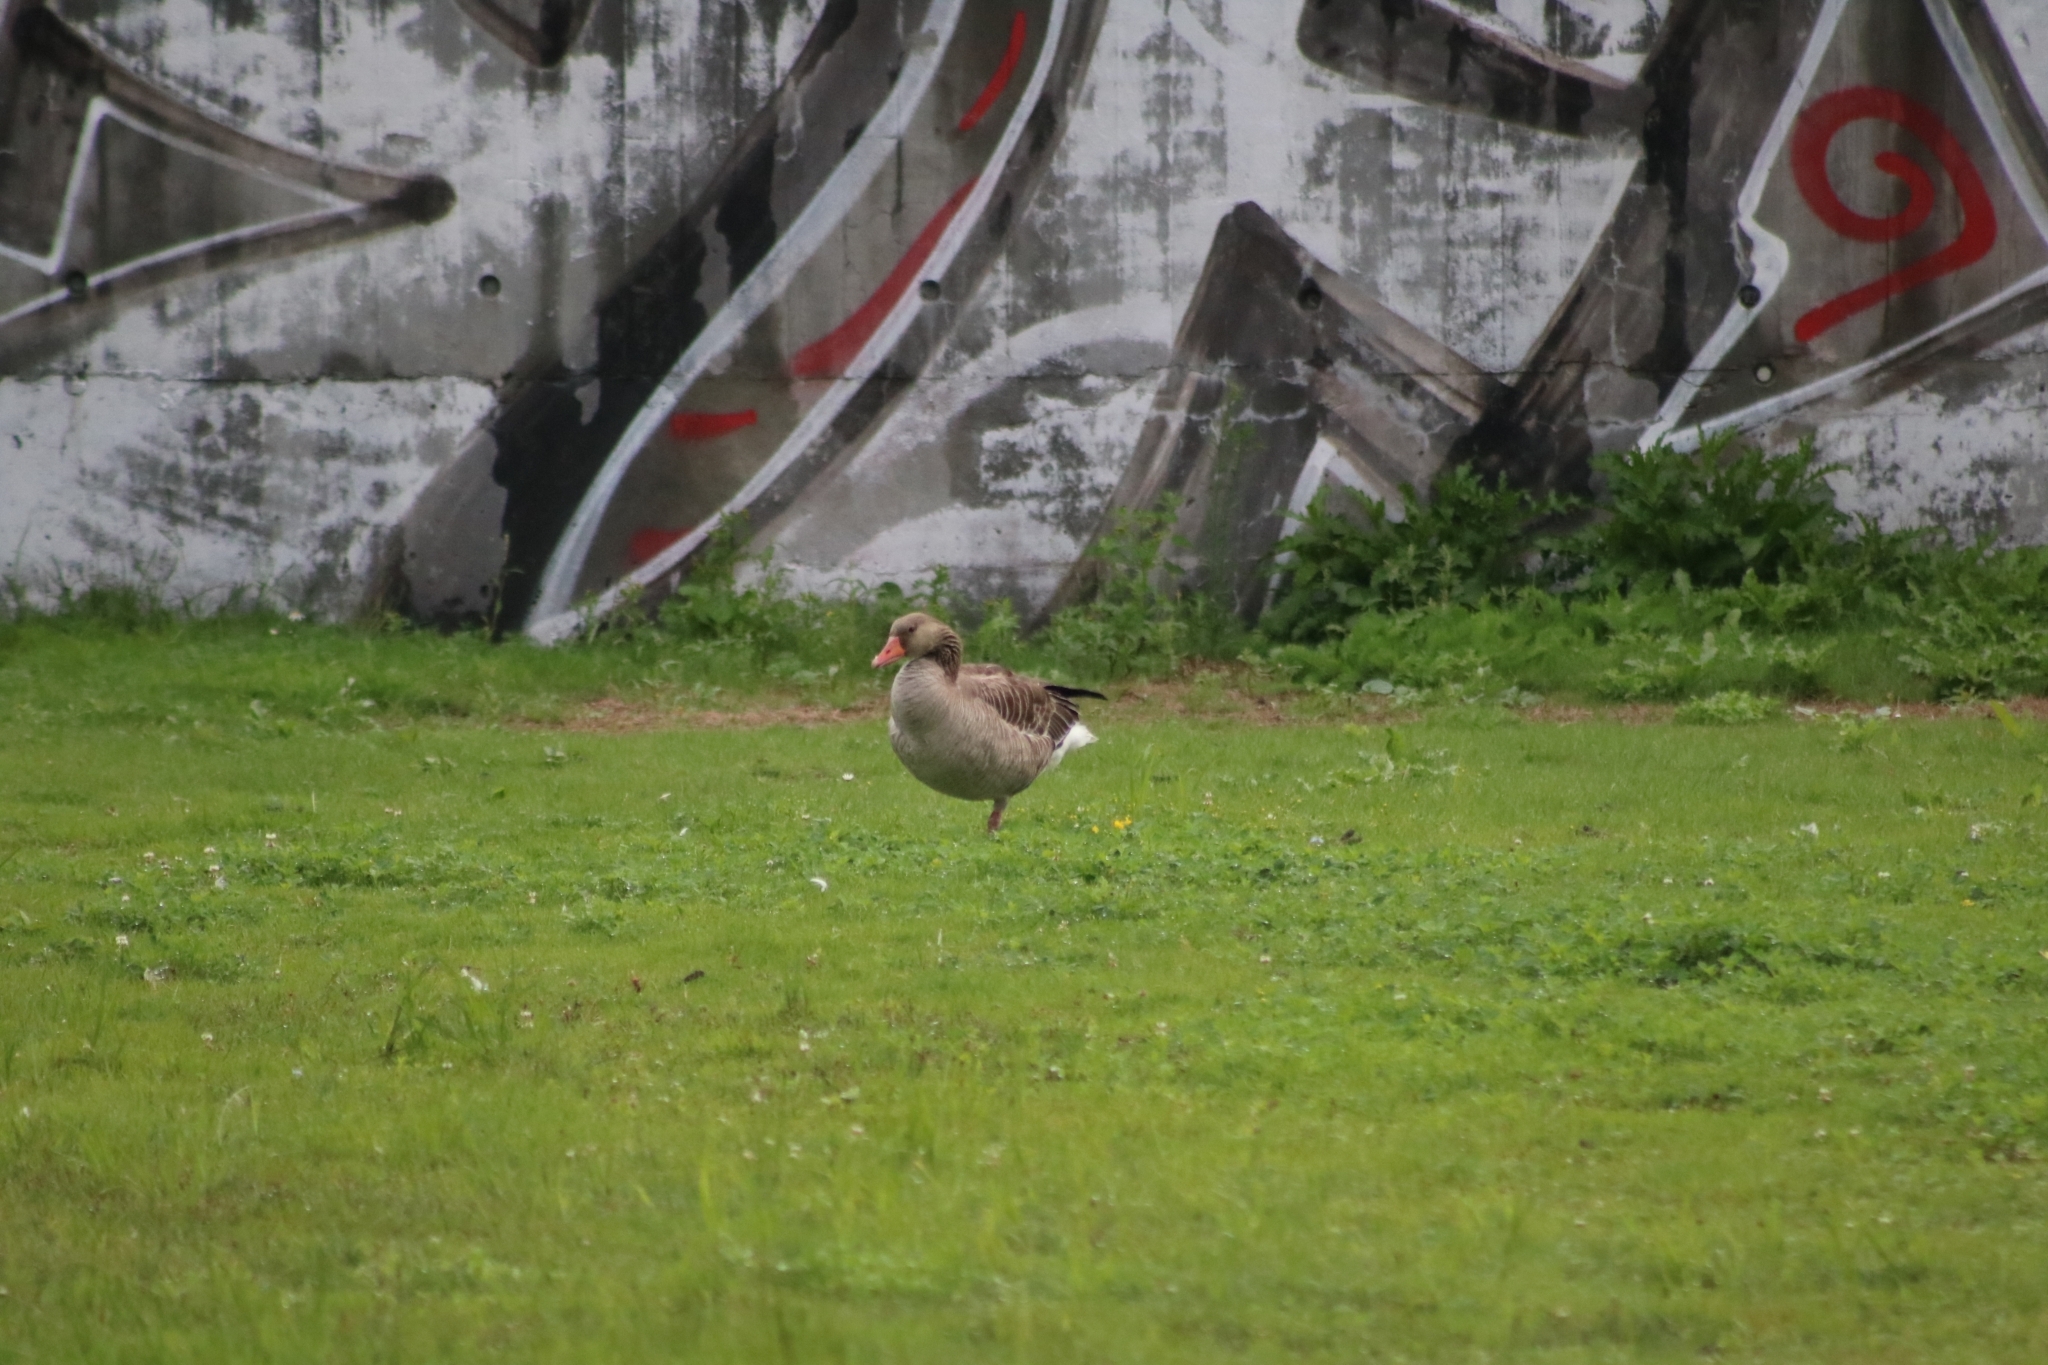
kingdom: Animalia
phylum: Chordata
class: Aves
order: Anseriformes
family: Anatidae
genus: Anser
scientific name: Anser anser
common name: Greylag goose
